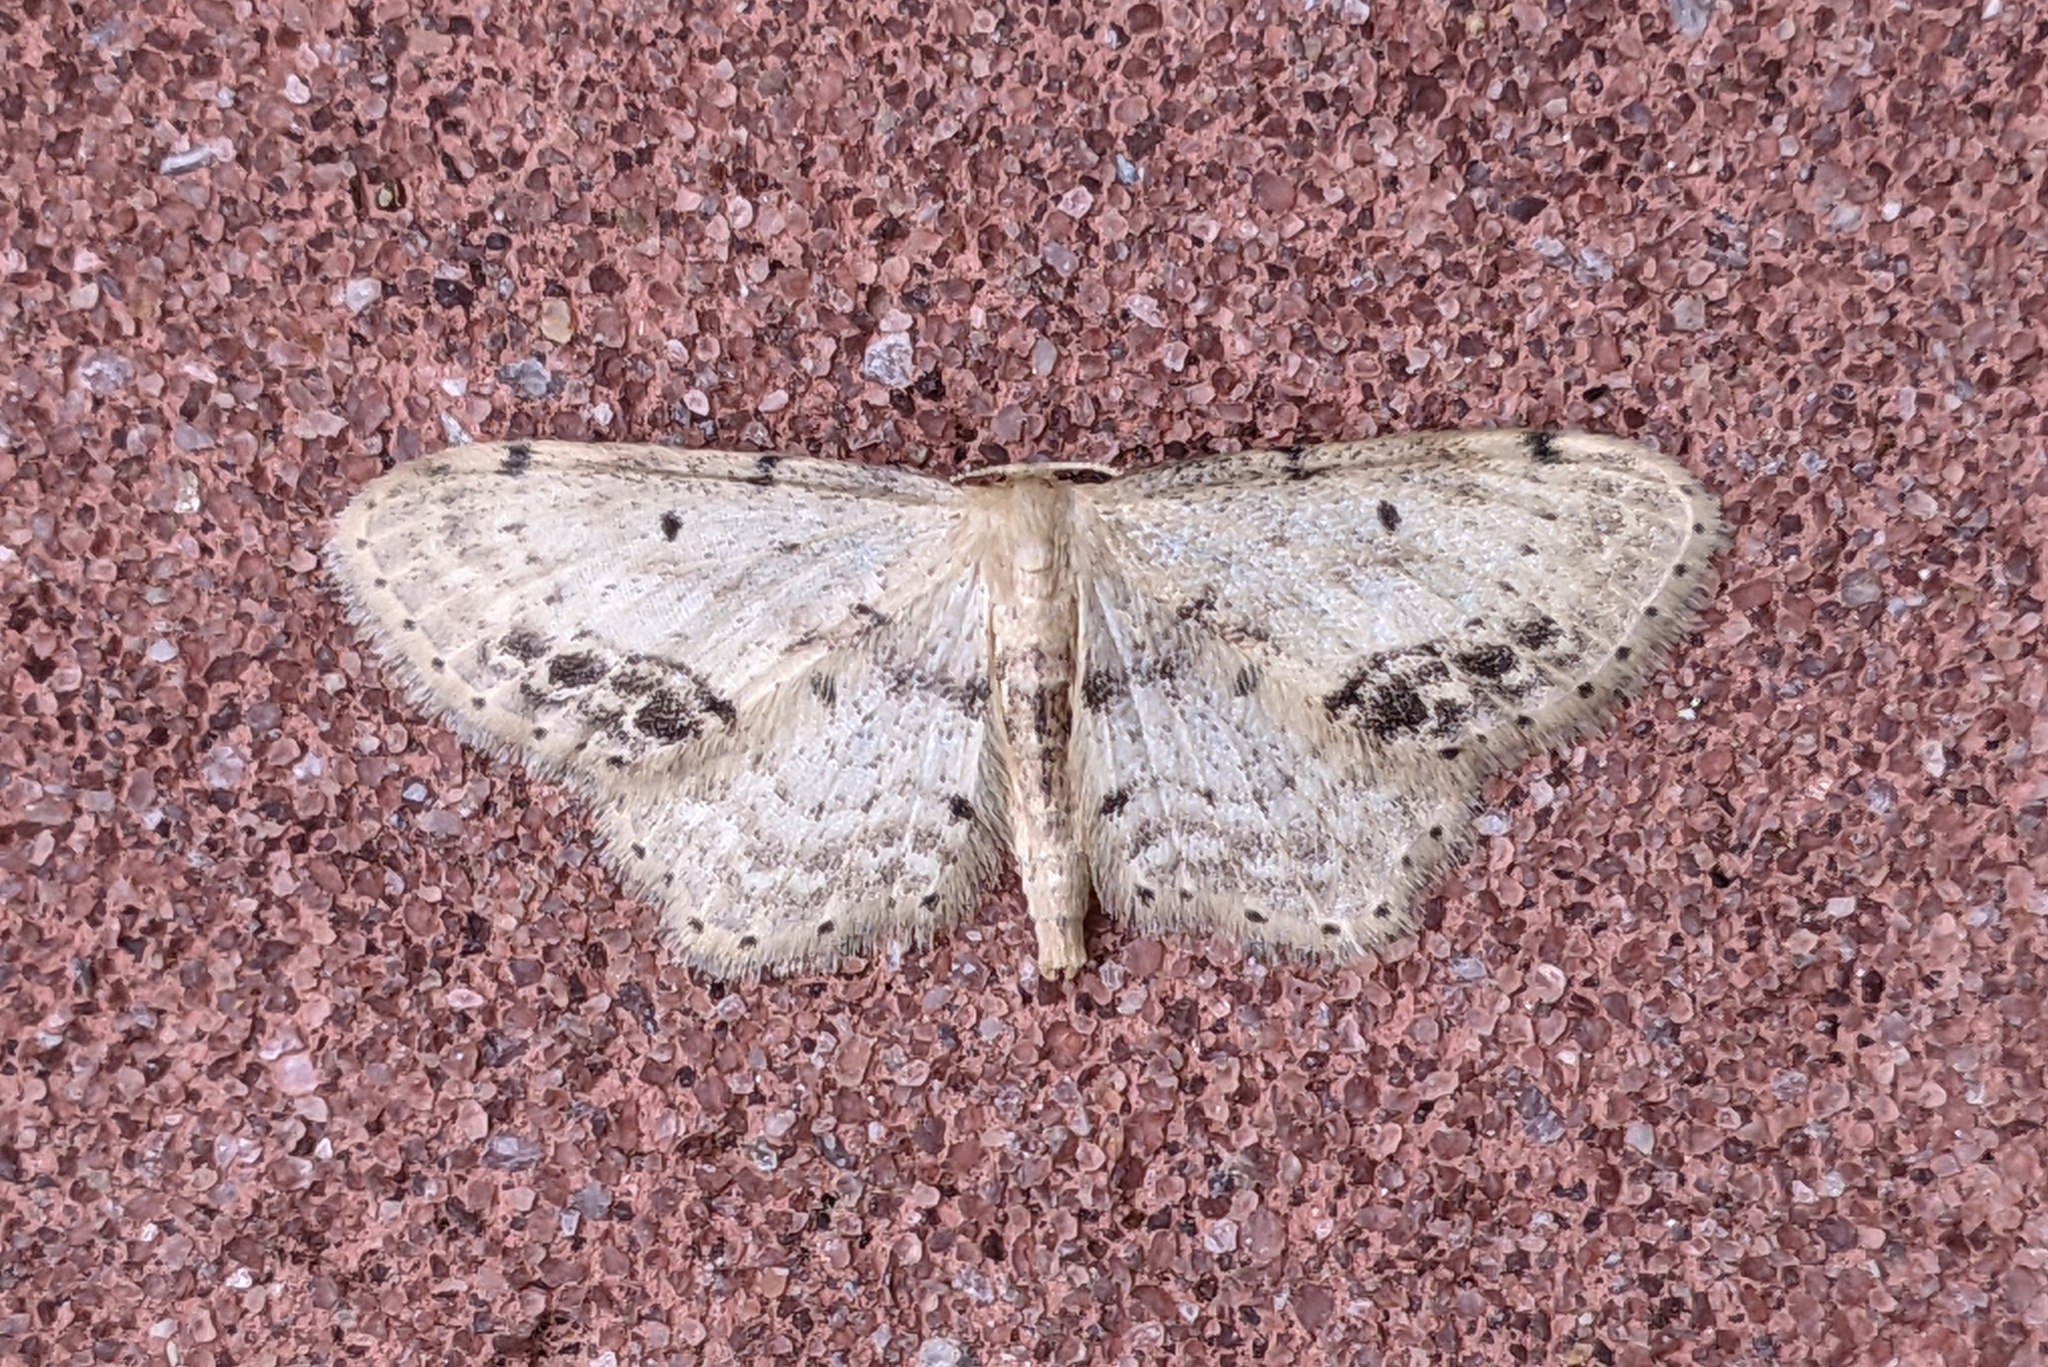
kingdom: Animalia
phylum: Arthropoda
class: Insecta
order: Lepidoptera
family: Geometridae
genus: Idaea
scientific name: Idaea dimidiata
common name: Single-dotted wave
